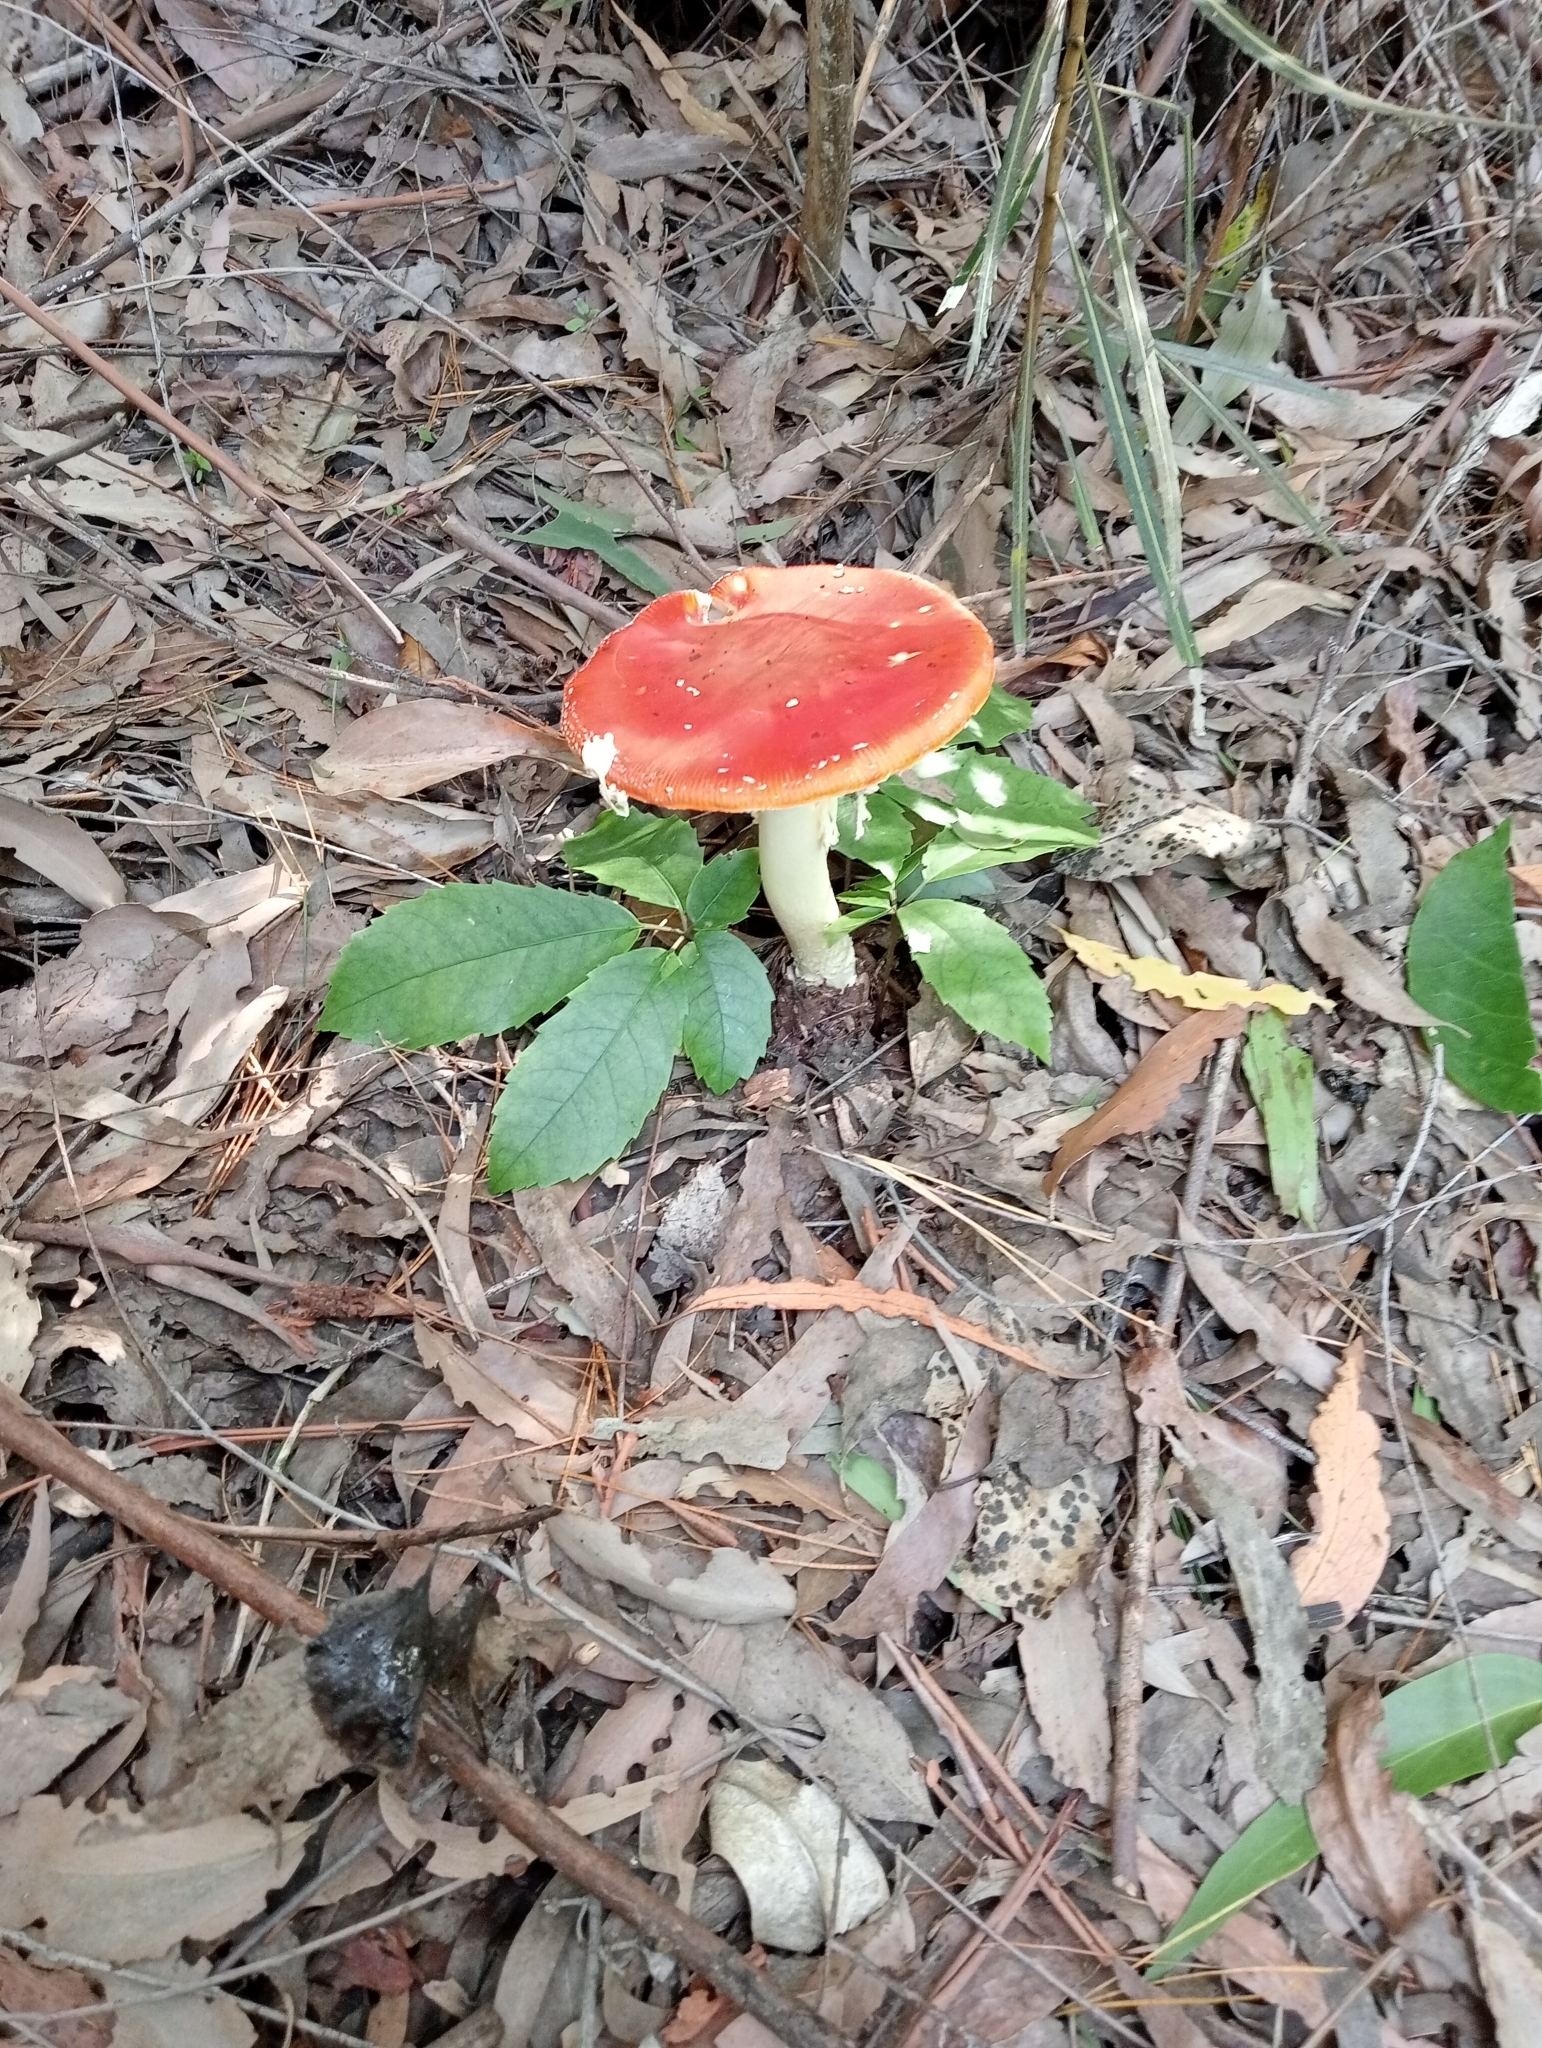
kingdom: Fungi
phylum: Basidiomycota
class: Agaricomycetes
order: Agaricales
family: Amanitaceae
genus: Amanita
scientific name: Amanita muscaria
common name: Fly agaric
